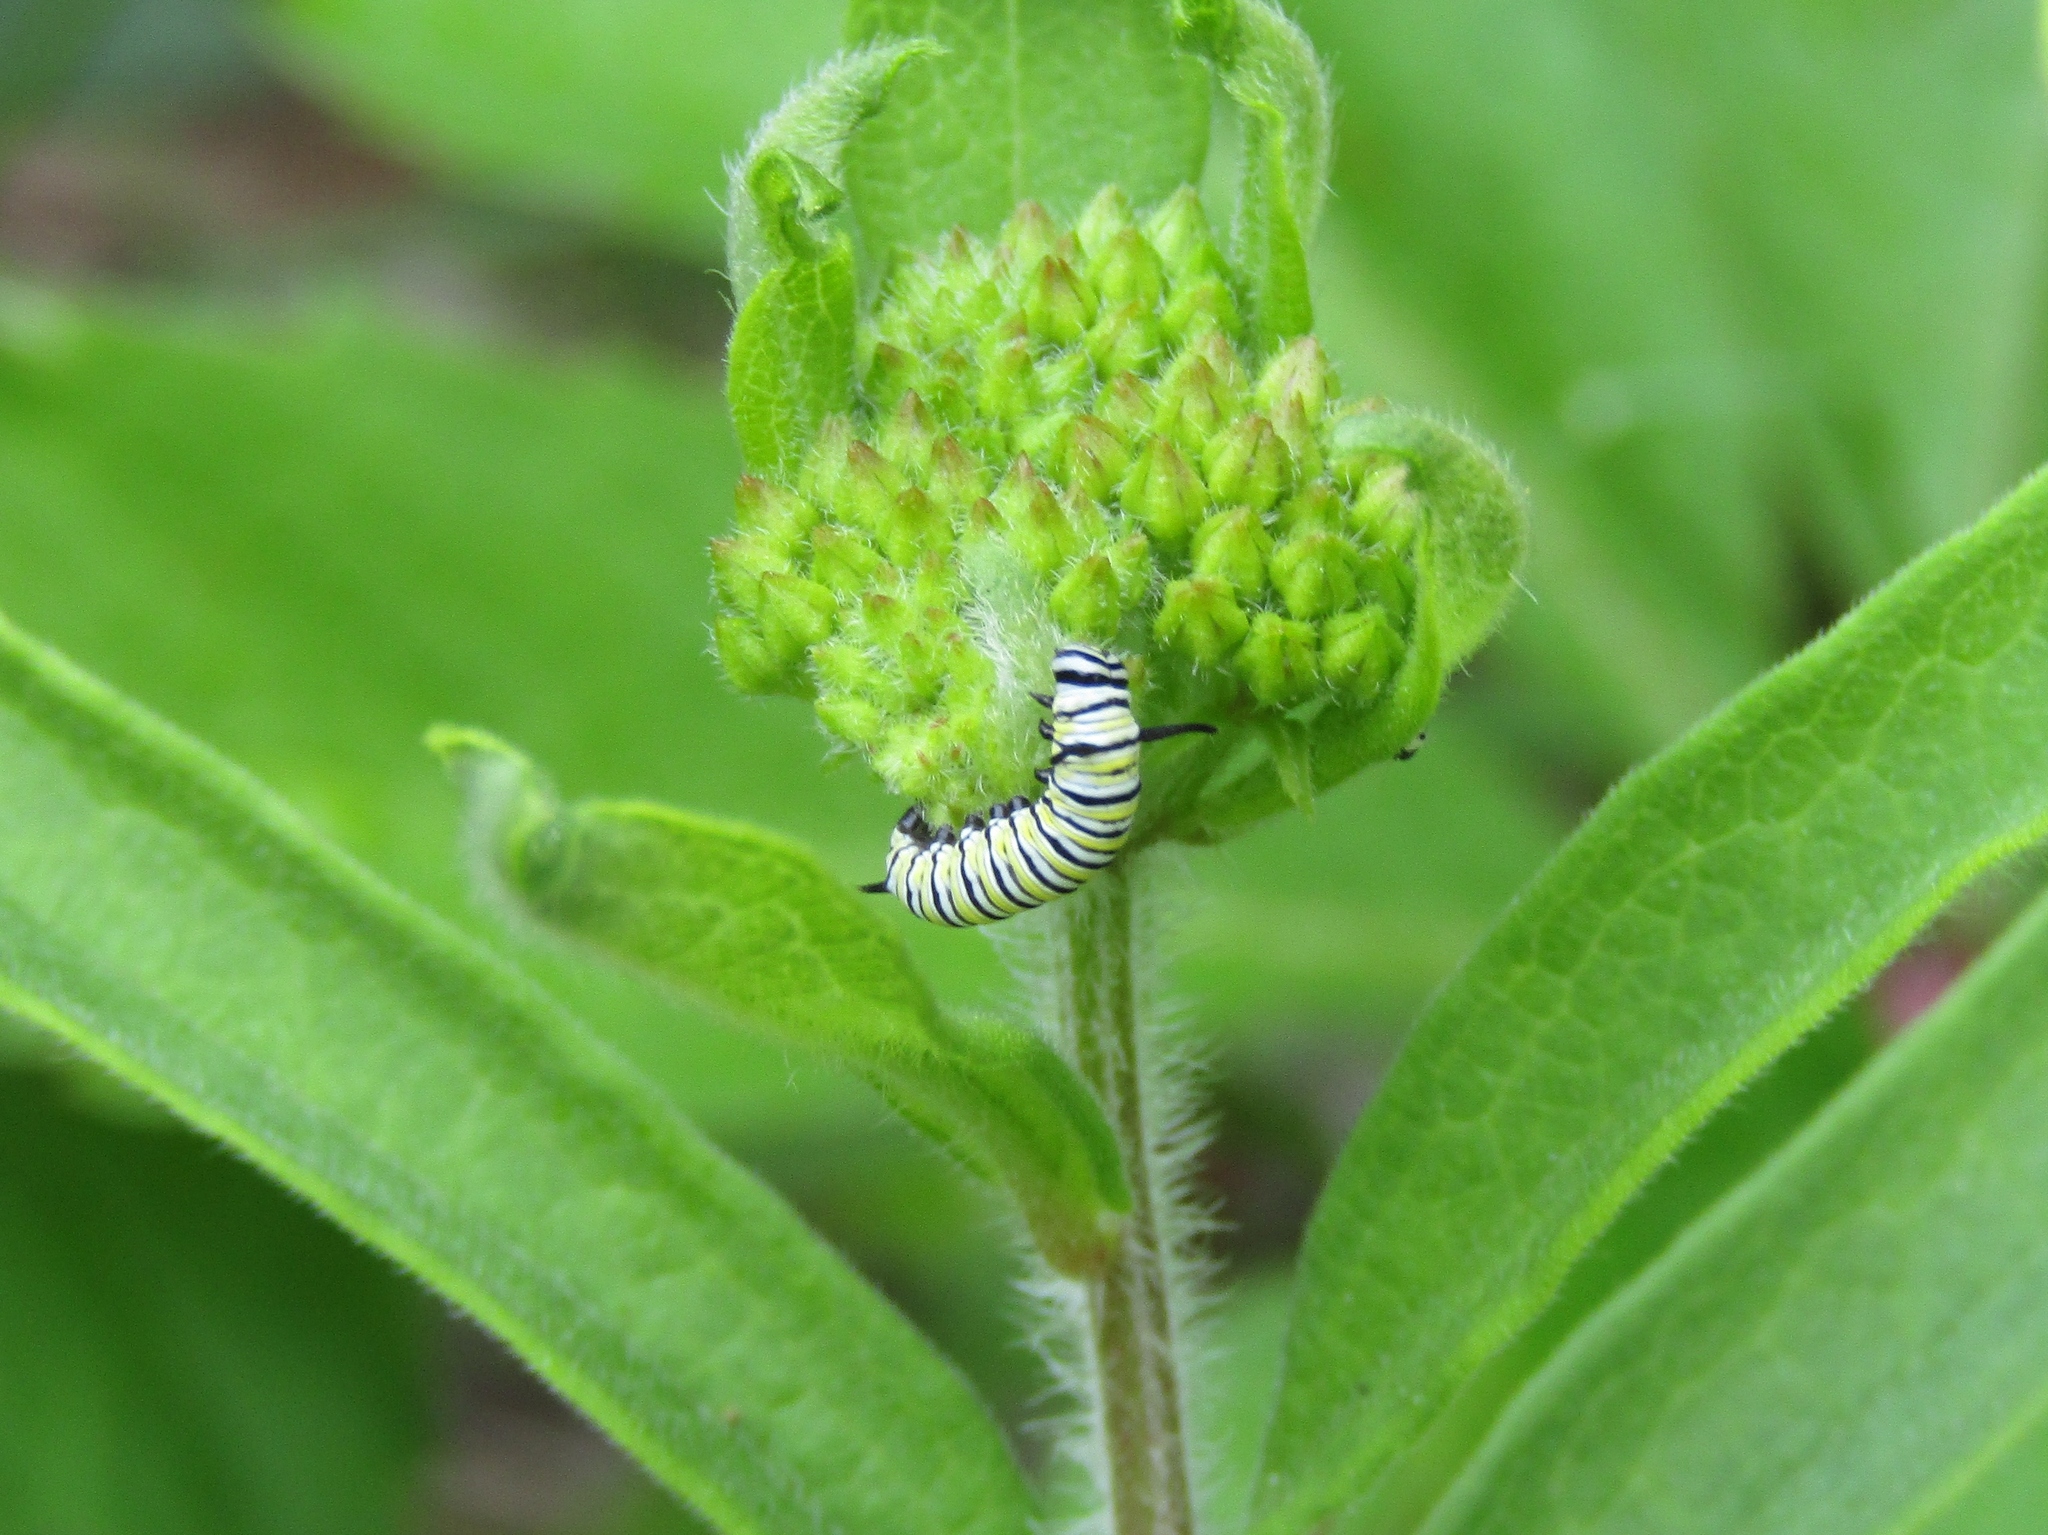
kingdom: Animalia
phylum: Arthropoda
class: Insecta
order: Lepidoptera
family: Nymphalidae
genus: Danaus
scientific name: Danaus plexippus
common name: Monarch
